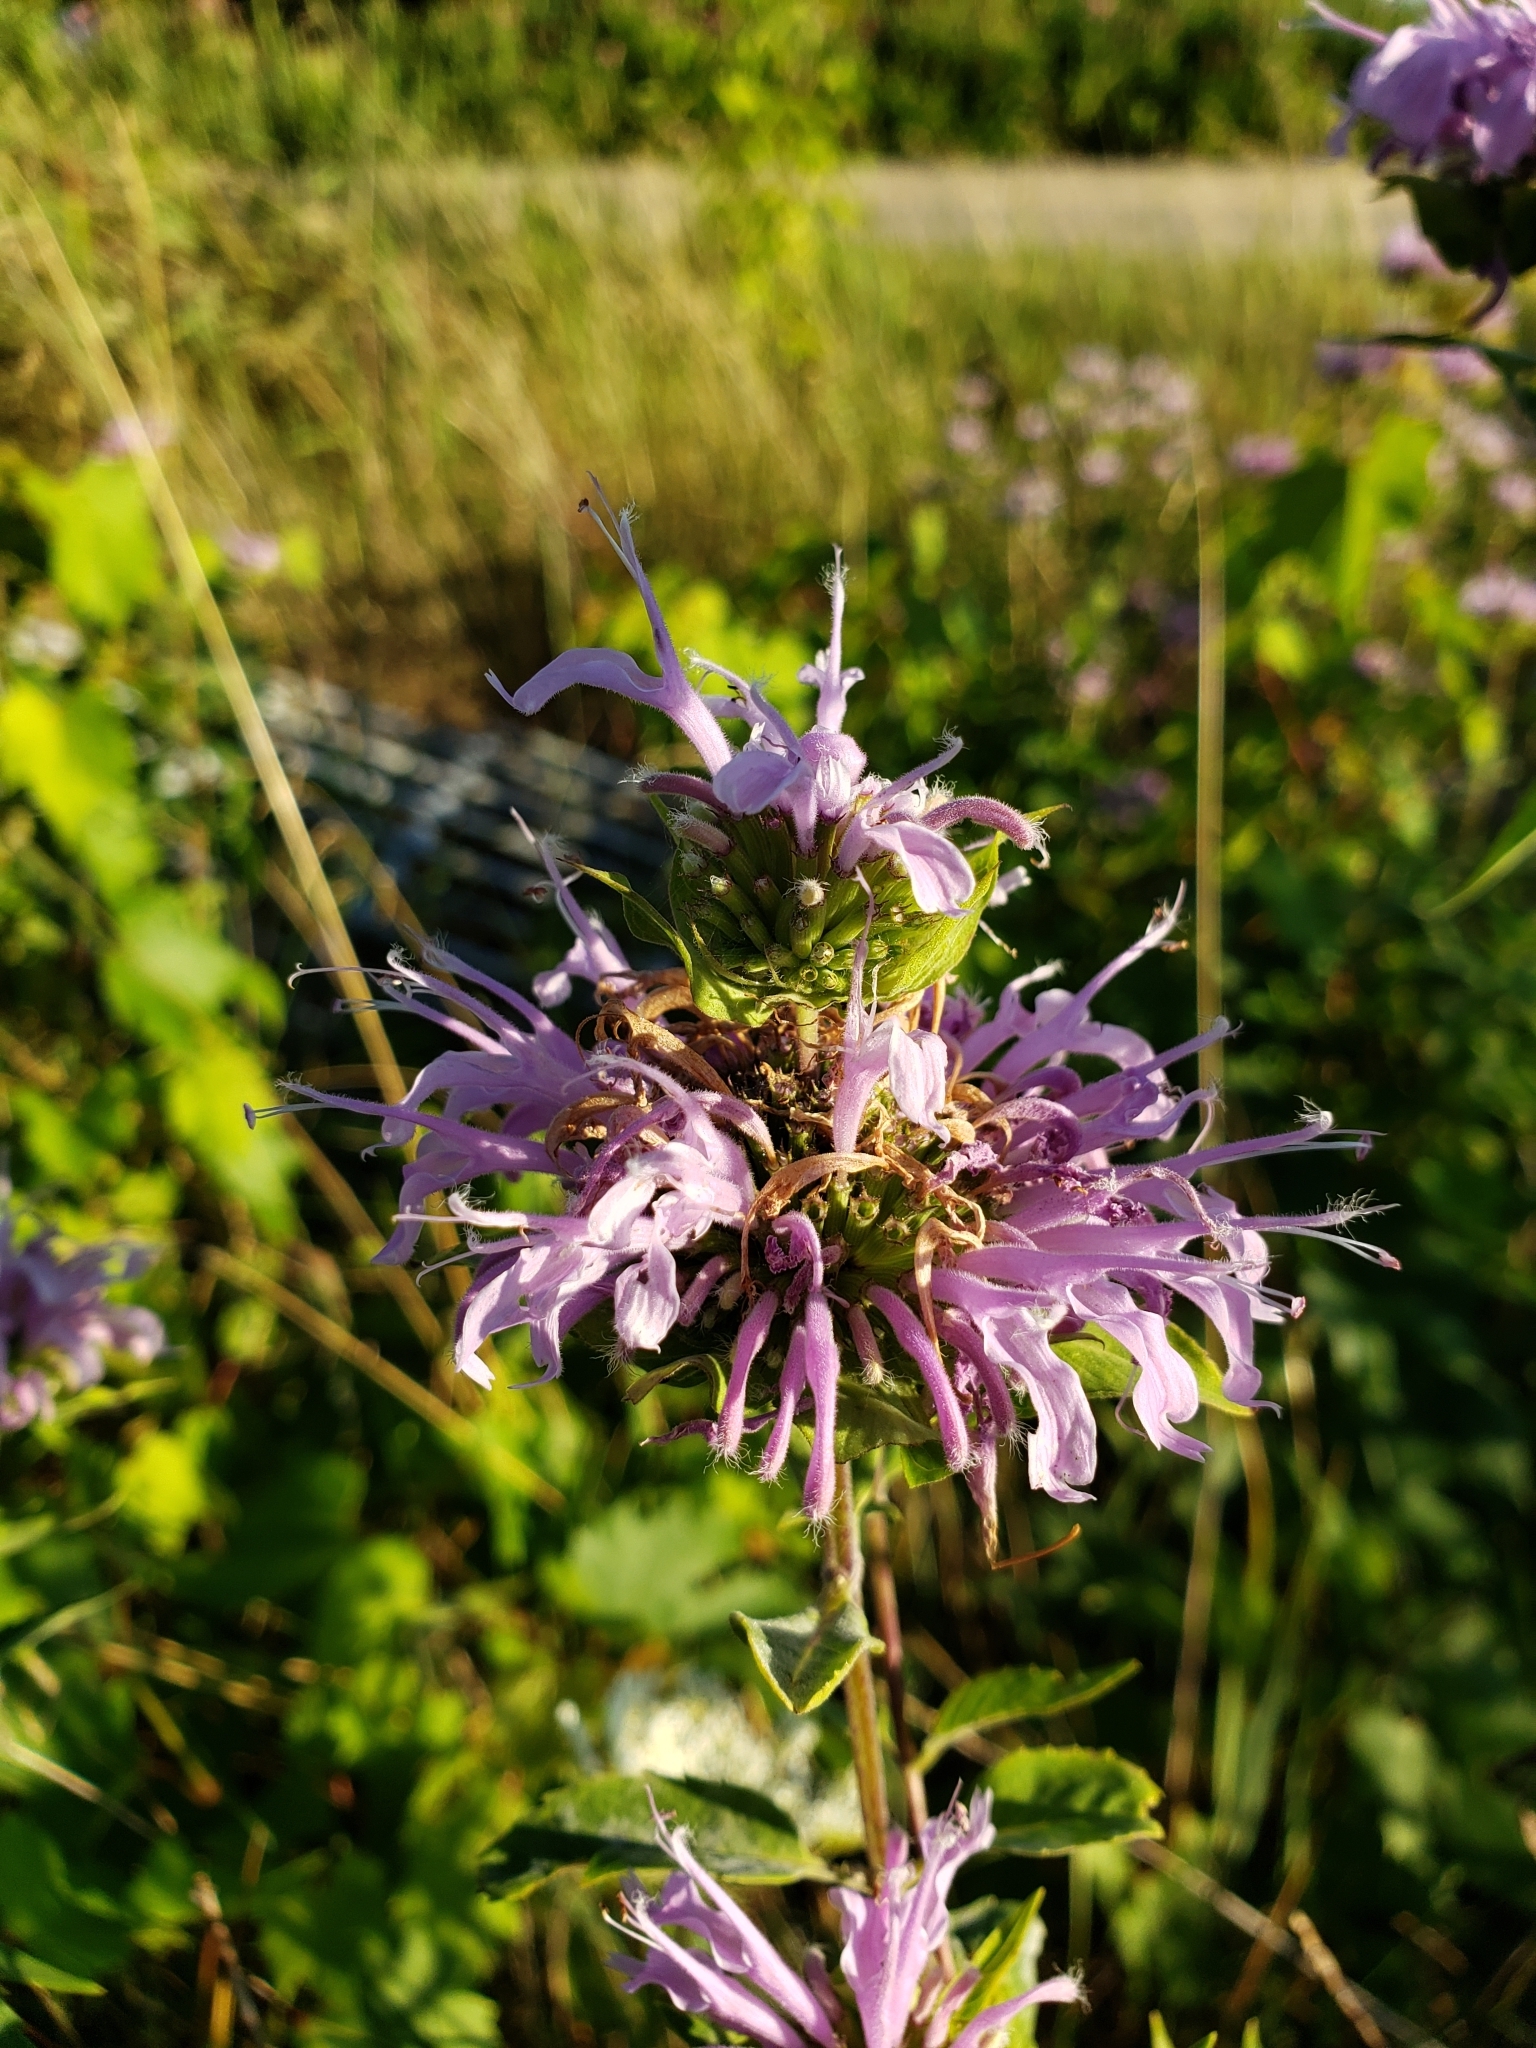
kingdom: Plantae
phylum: Tracheophyta
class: Magnoliopsida
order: Lamiales
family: Lamiaceae
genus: Monarda
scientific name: Monarda fistulosa
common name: Purple beebalm
